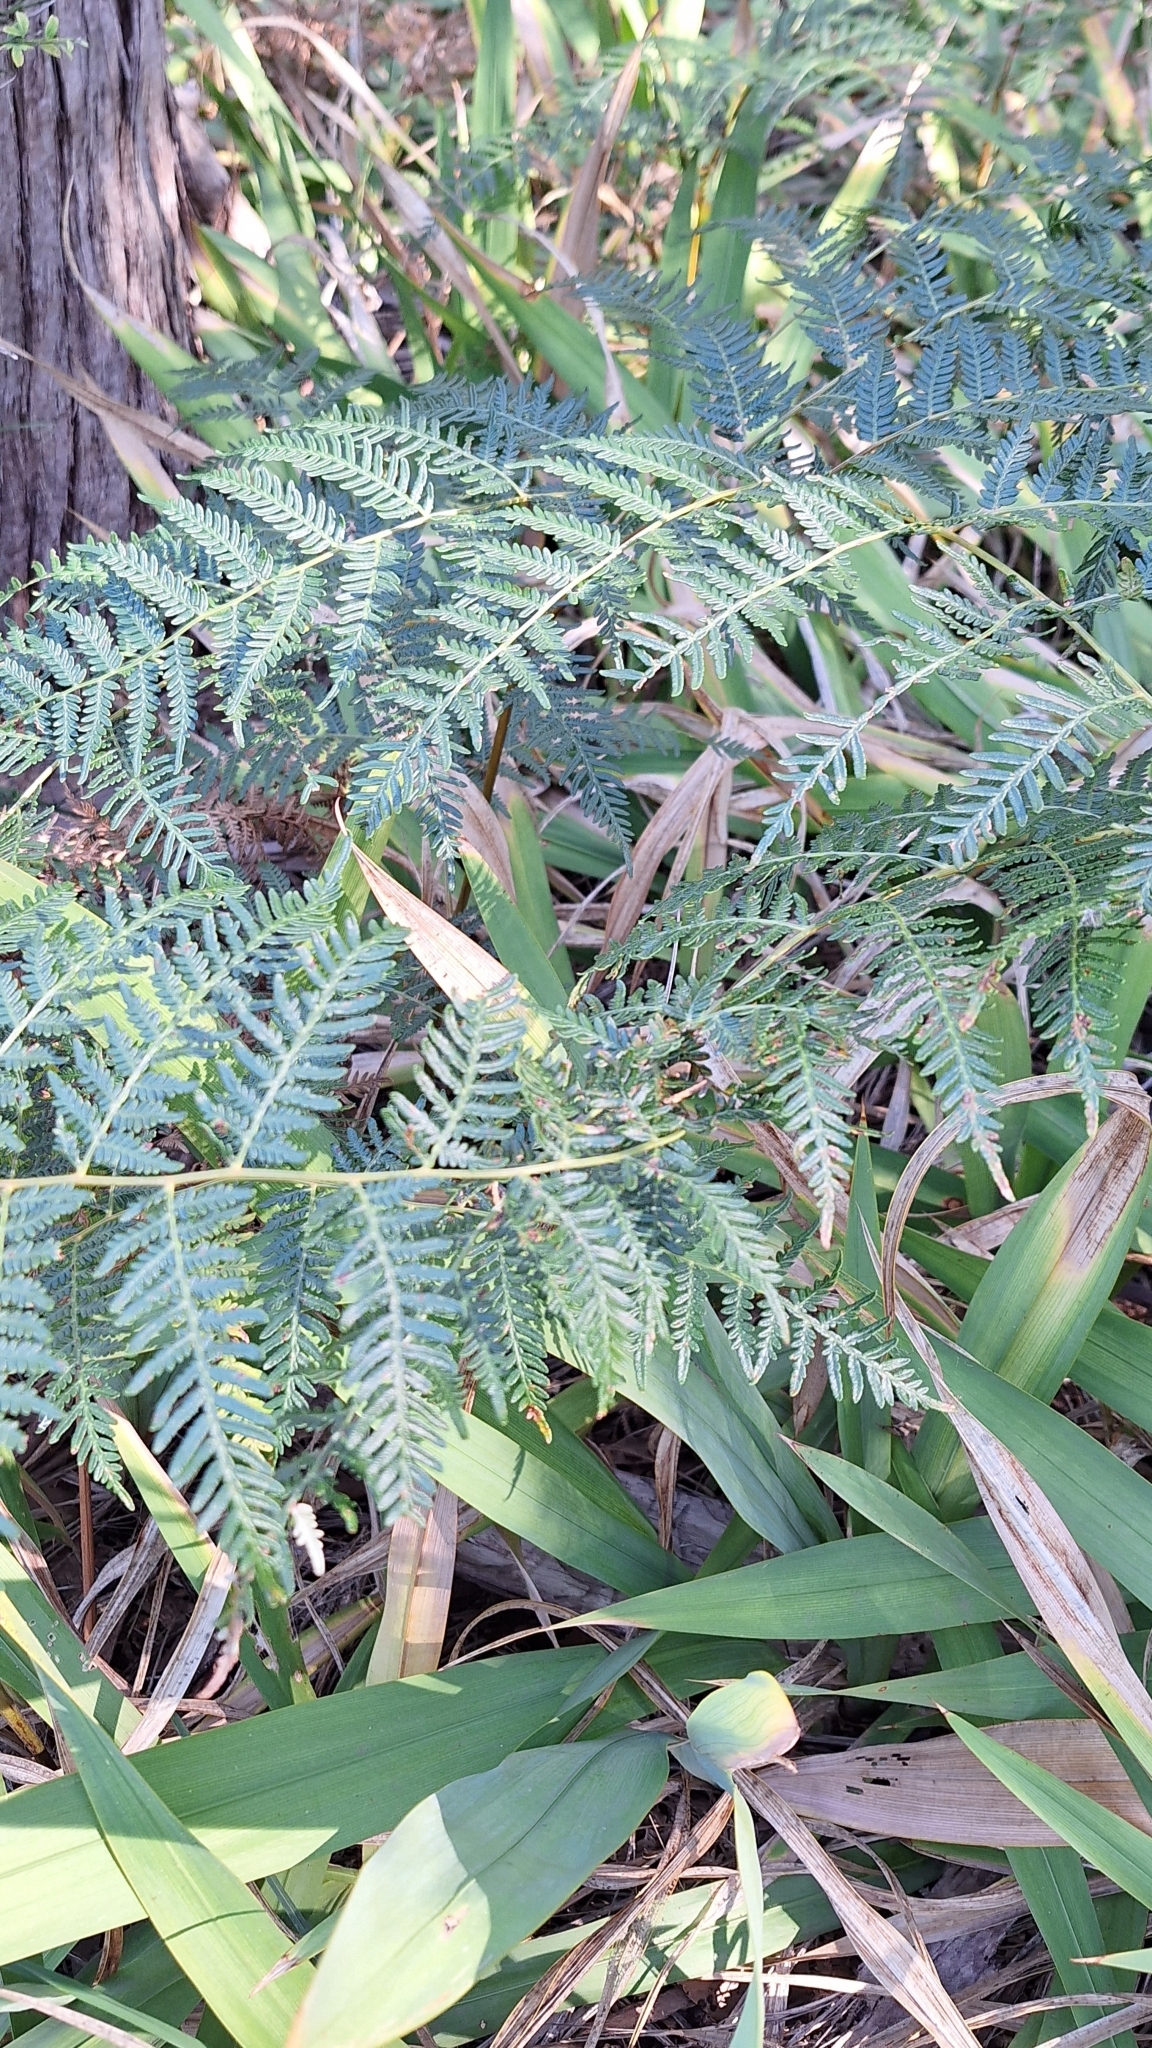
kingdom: Plantae
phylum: Tracheophyta
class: Polypodiopsida
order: Polypodiales
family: Dennstaedtiaceae
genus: Pteridium
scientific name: Pteridium esculentum
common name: Bracken fern
